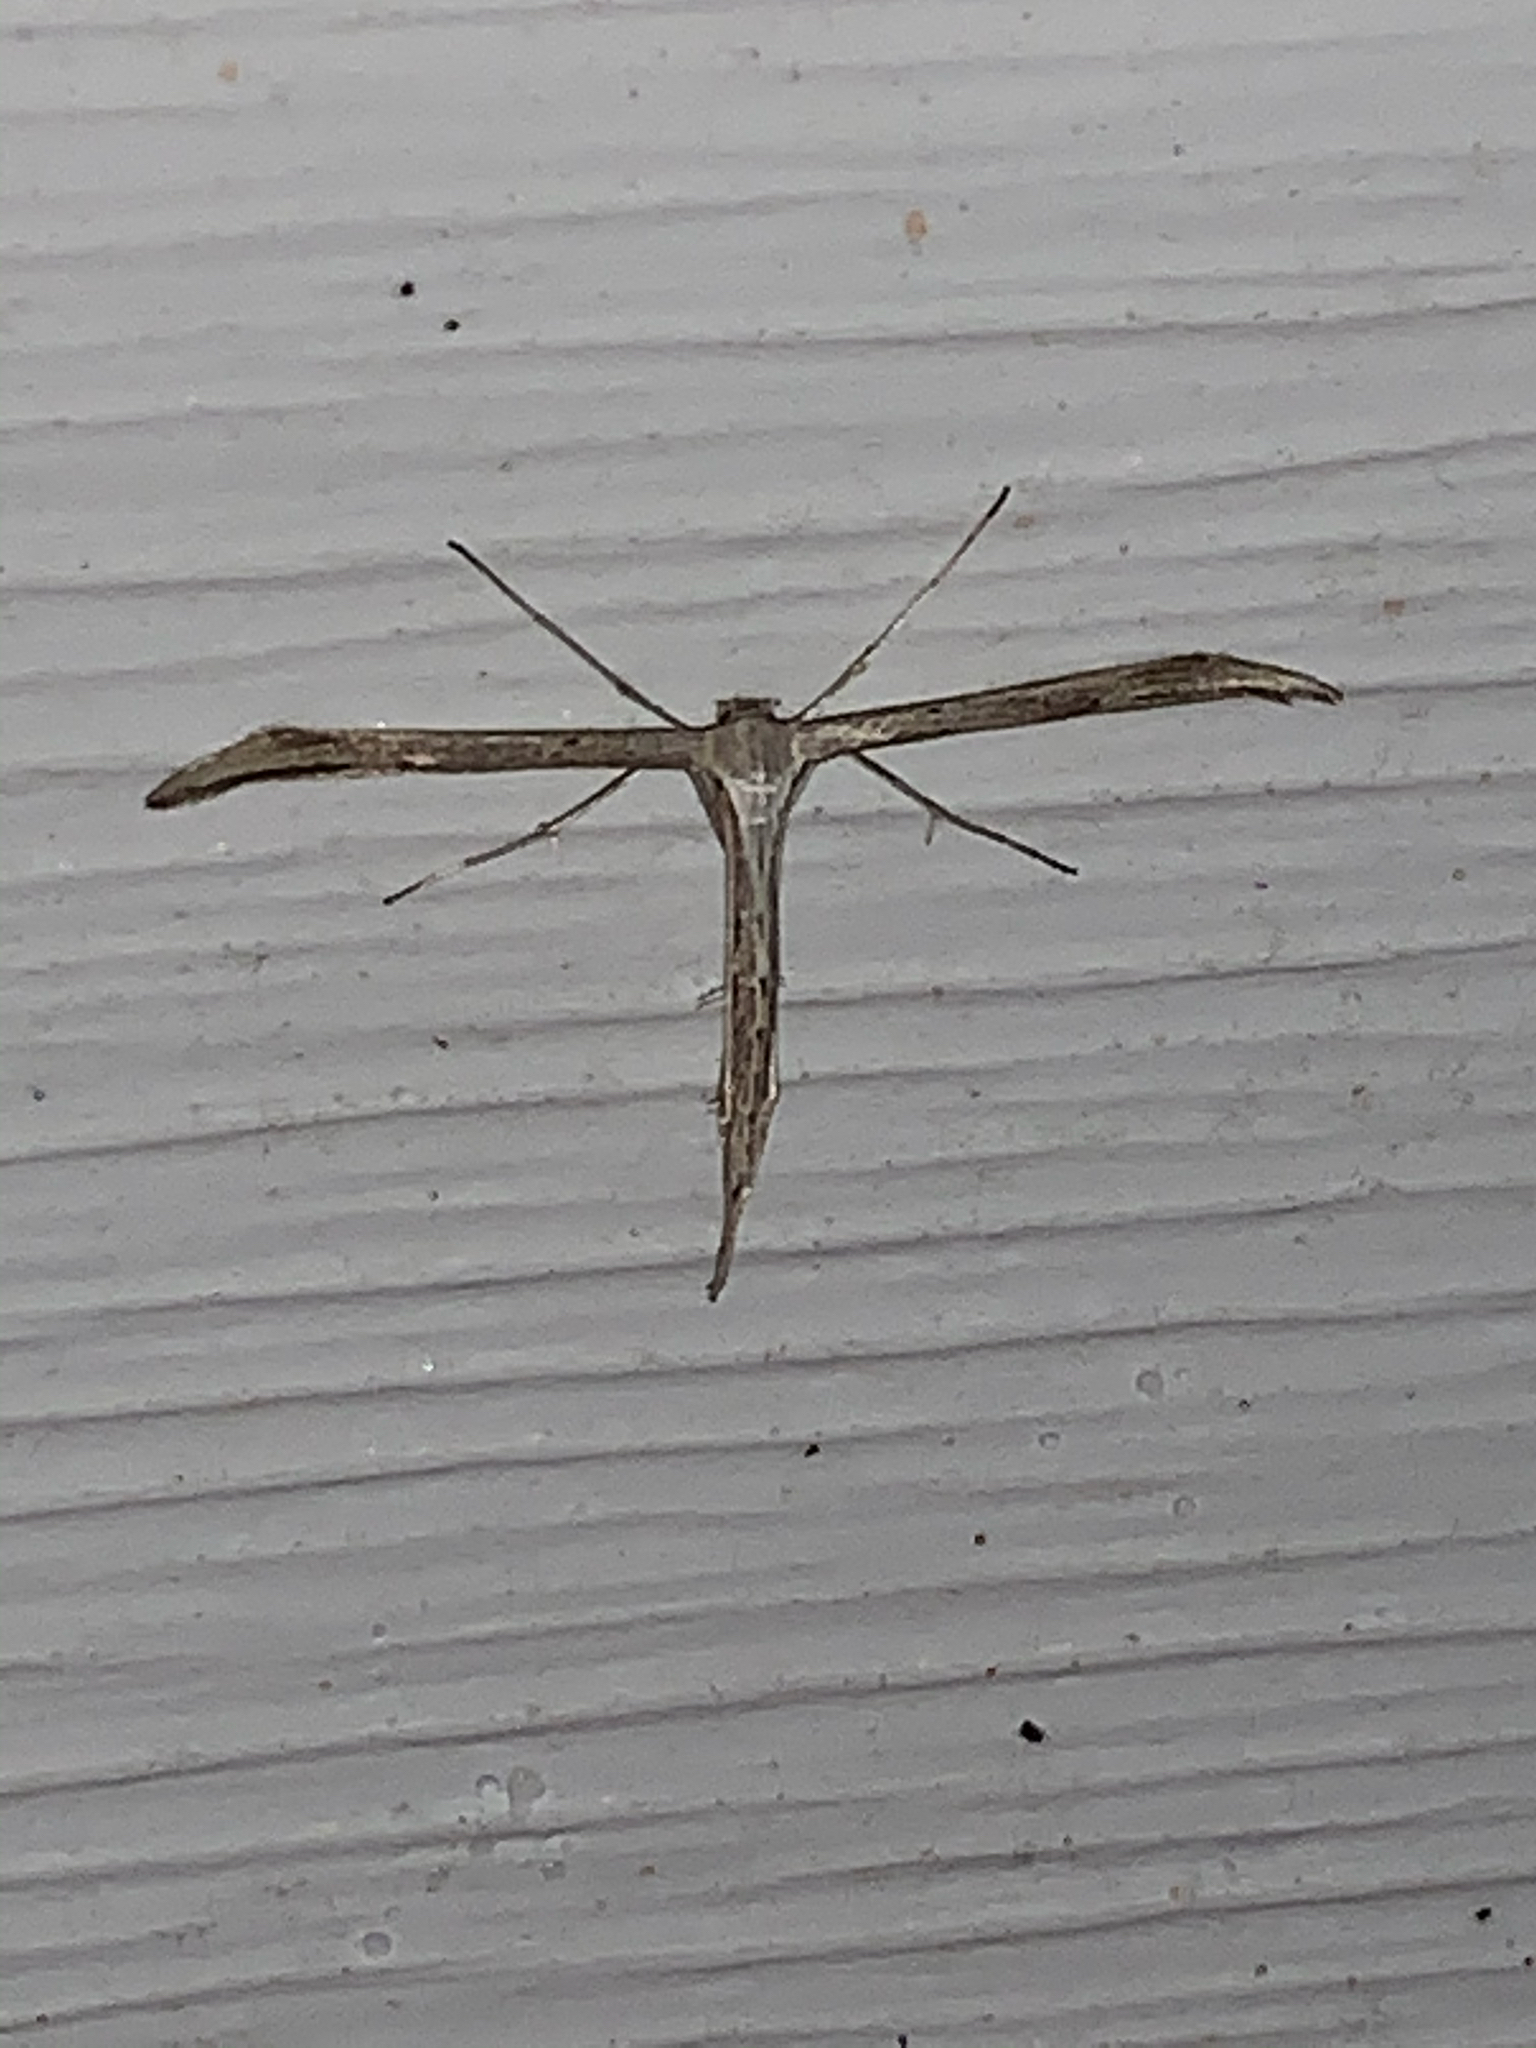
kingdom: Animalia
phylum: Arthropoda
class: Insecta
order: Lepidoptera
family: Pterophoridae
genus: Emmelina
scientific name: Emmelina monodactyla
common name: Common plume
